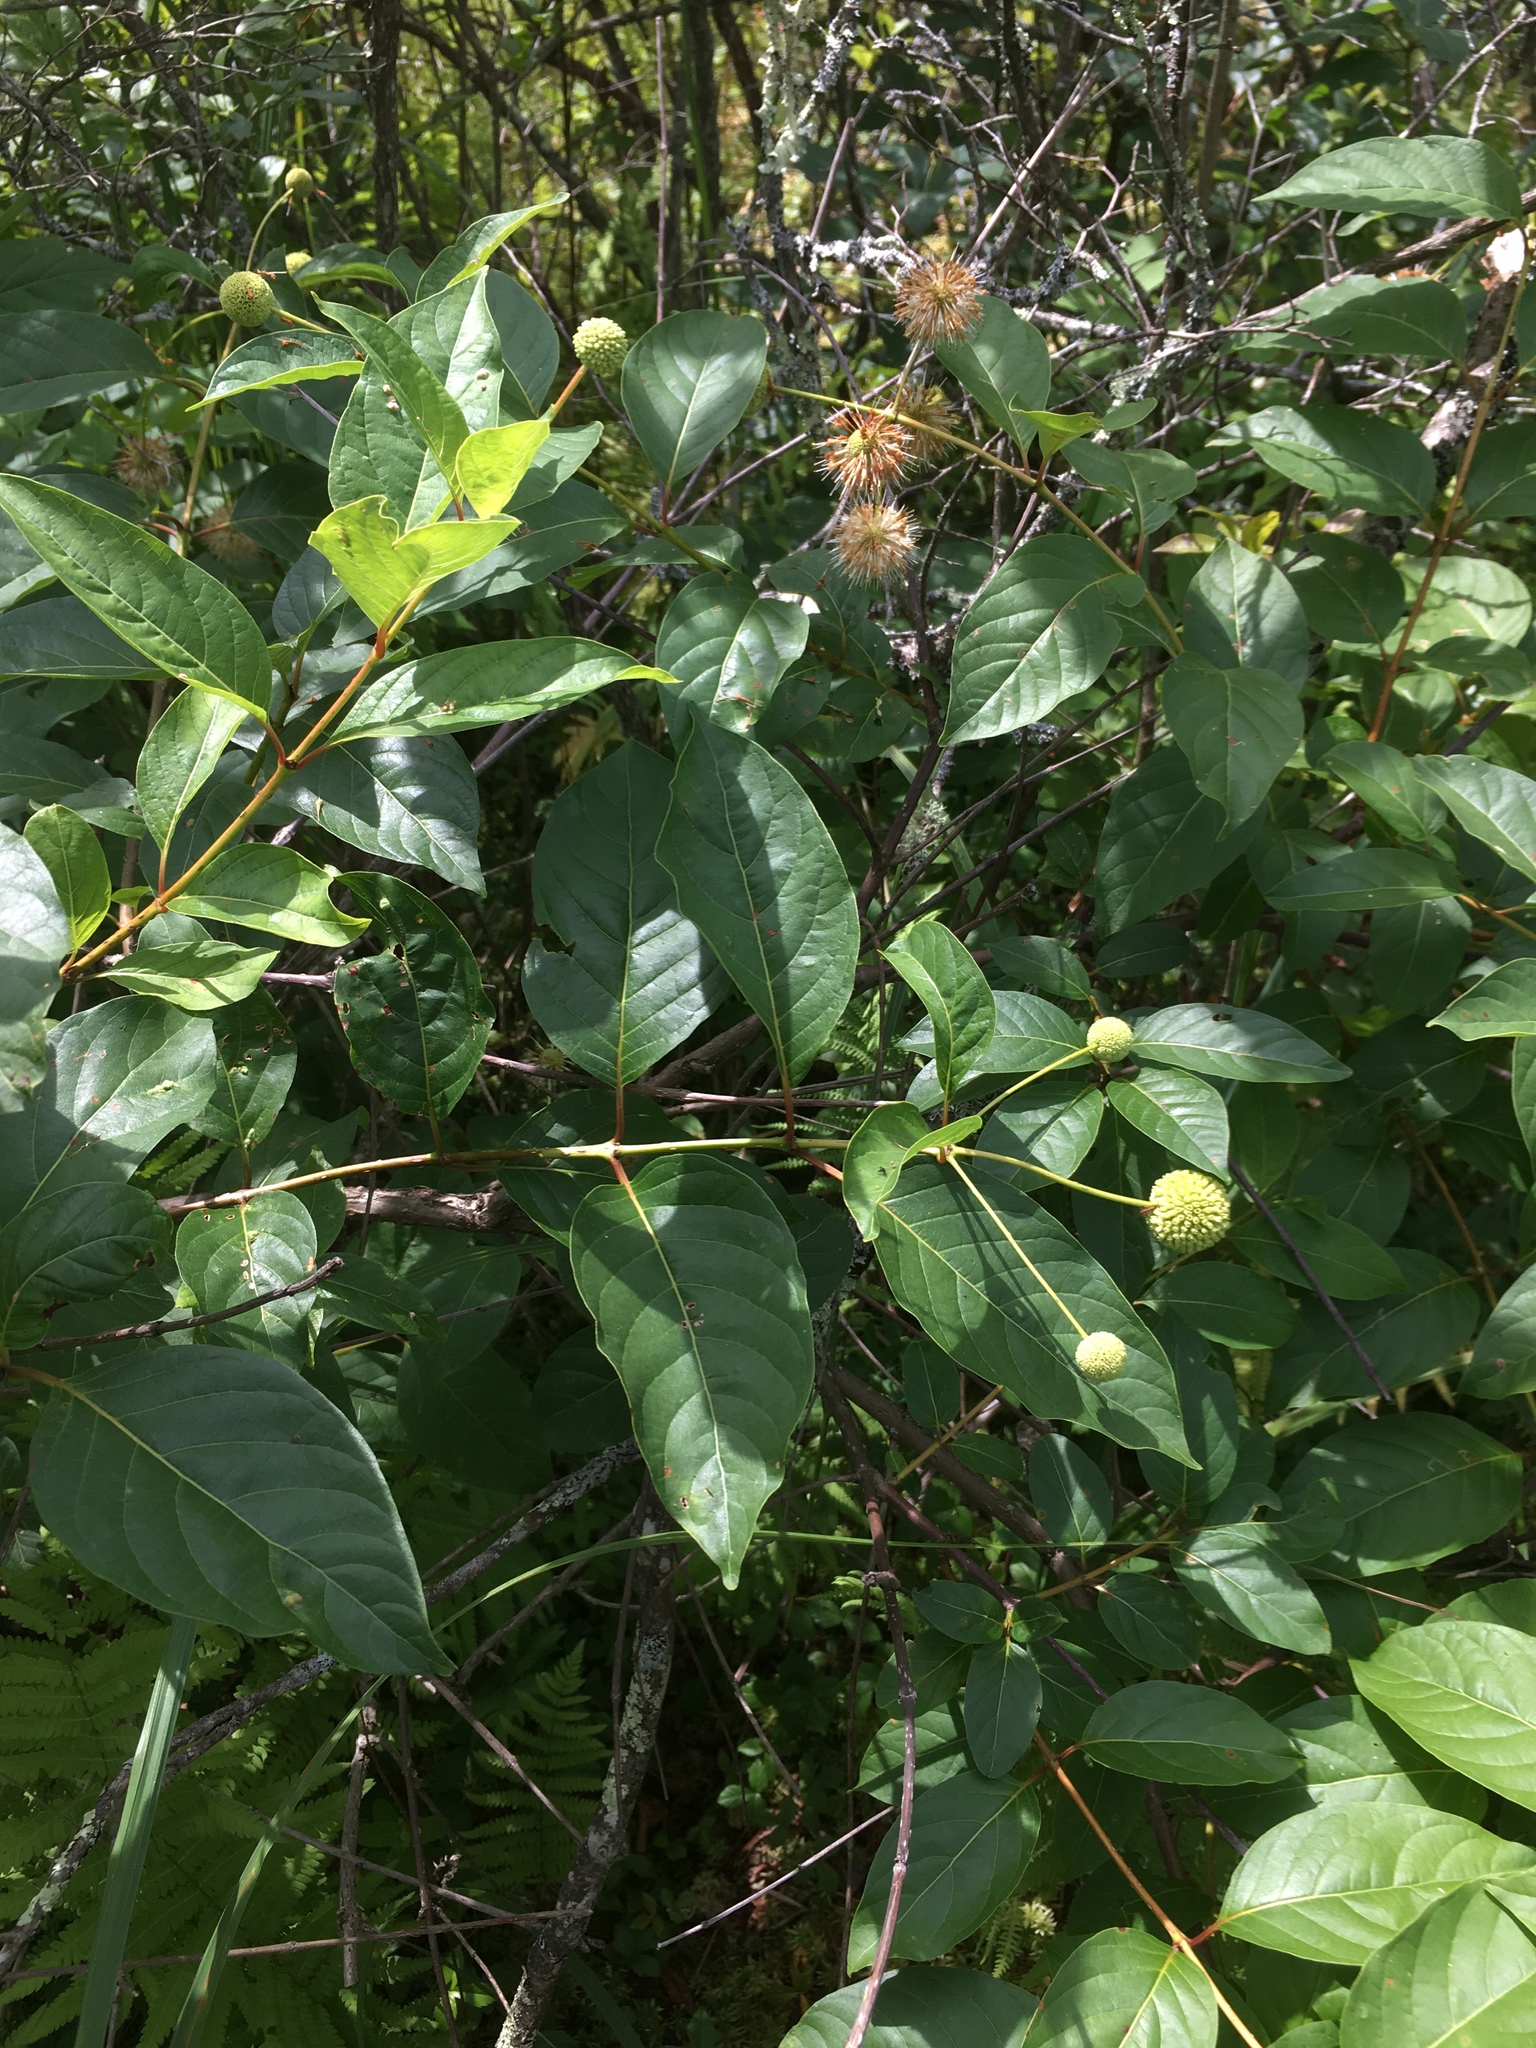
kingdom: Plantae
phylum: Tracheophyta
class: Magnoliopsida
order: Gentianales
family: Rubiaceae
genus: Cephalanthus
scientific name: Cephalanthus occidentalis
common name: Button-willow
